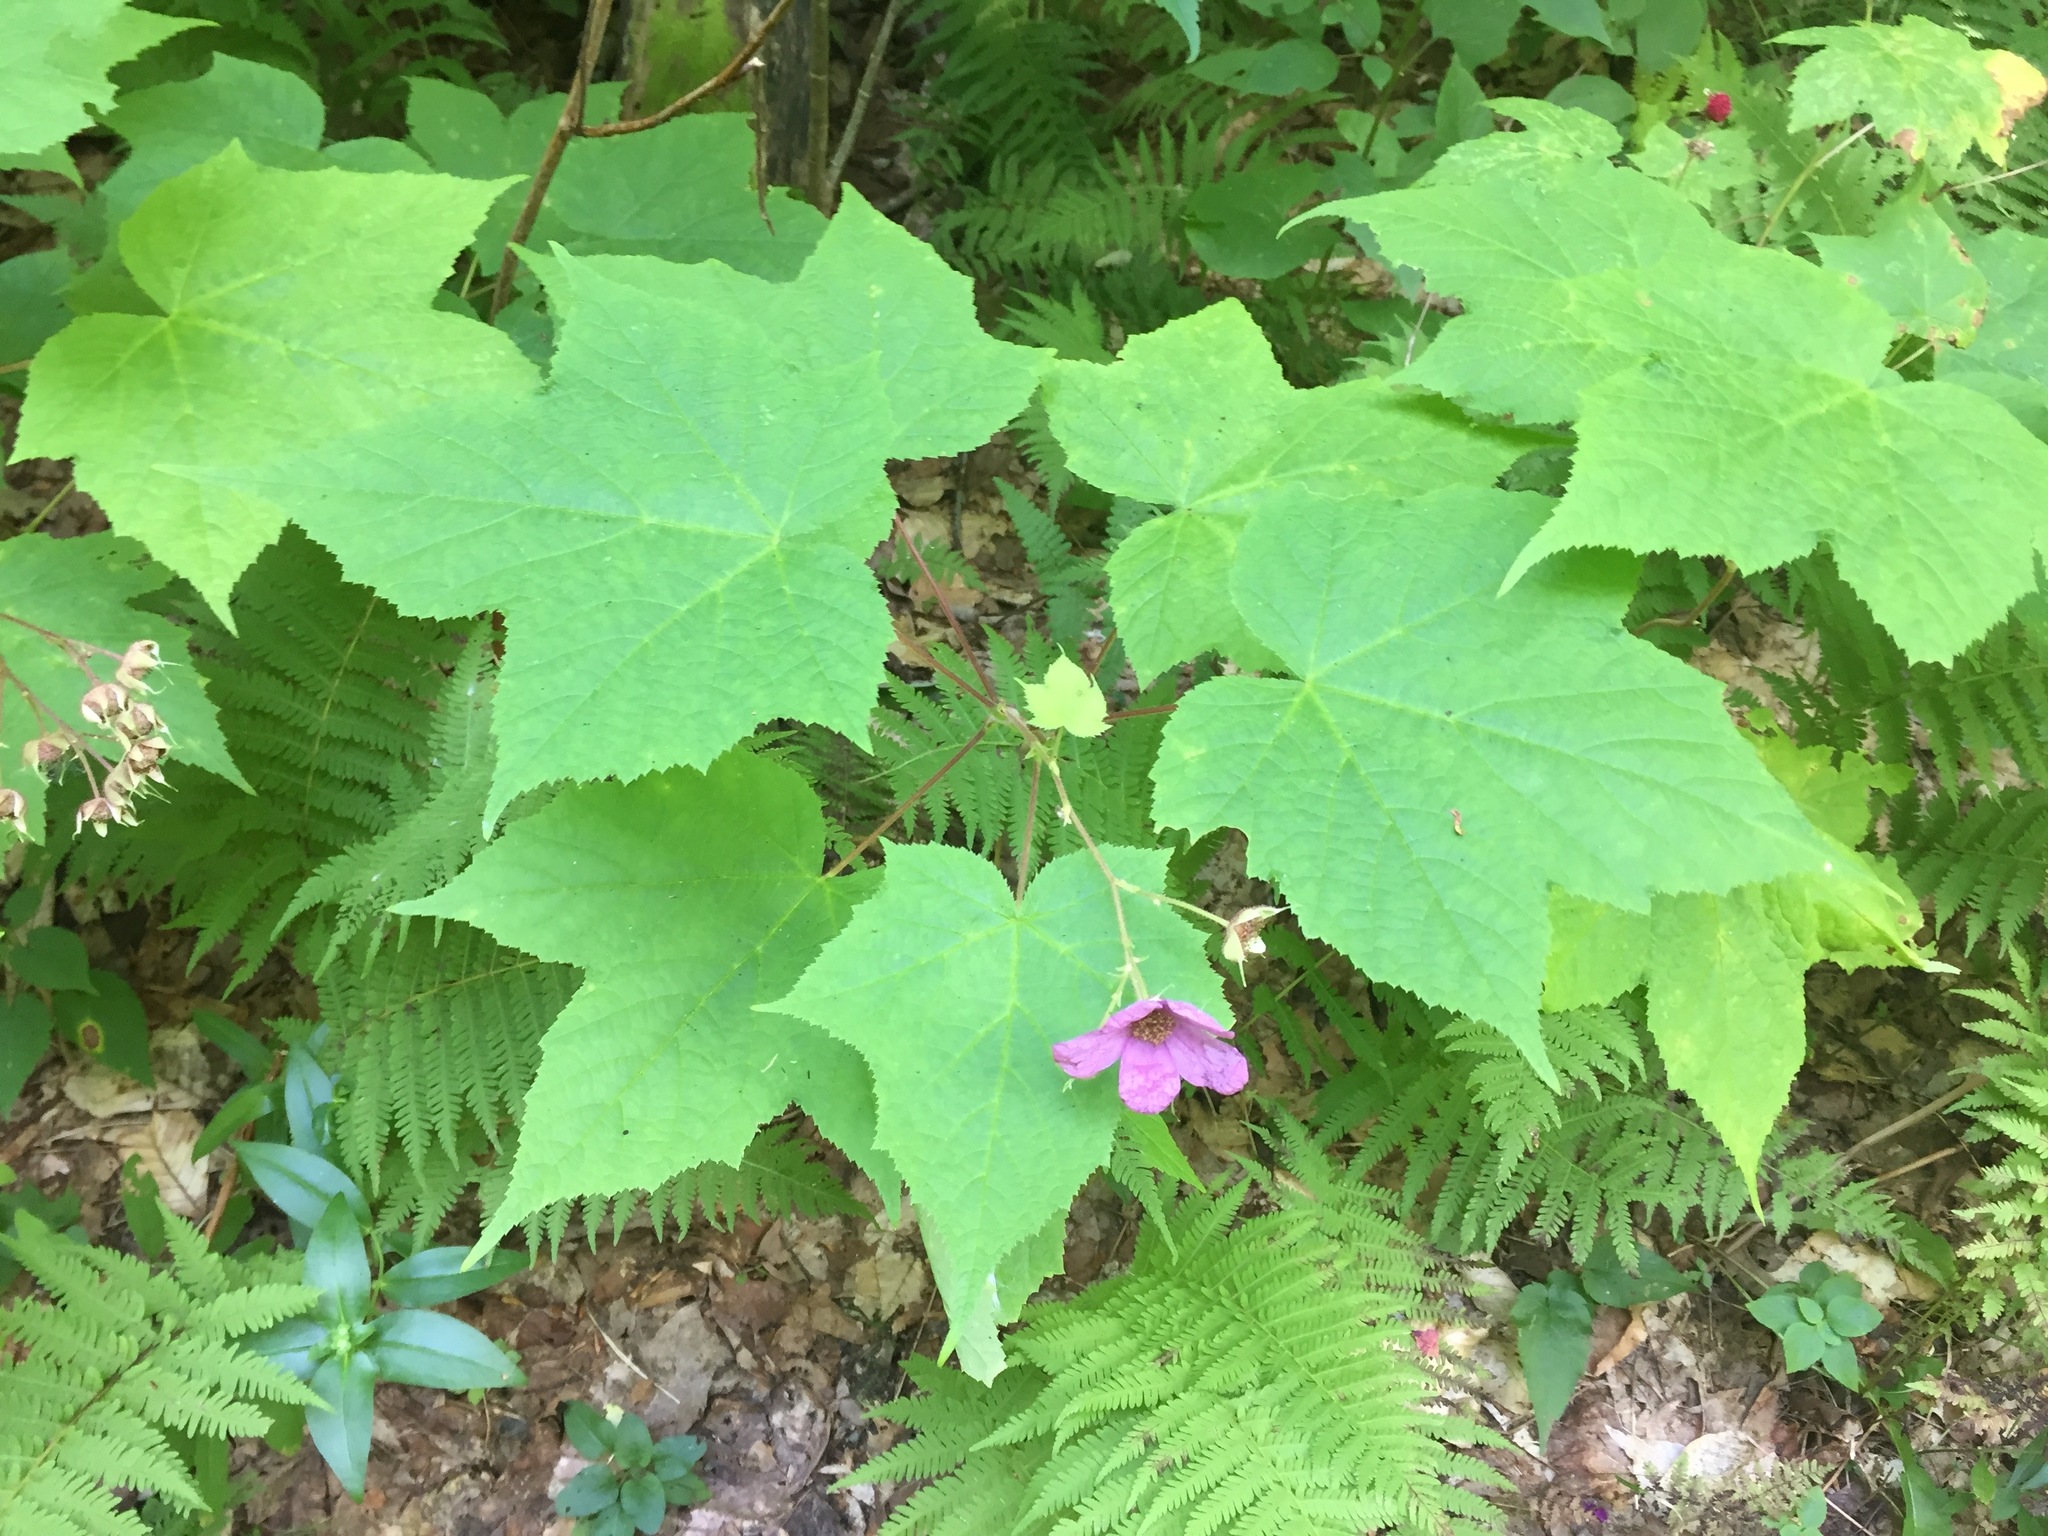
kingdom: Plantae
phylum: Tracheophyta
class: Magnoliopsida
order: Rosales
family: Rosaceae
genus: Rubus
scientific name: Rubus odoratus
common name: Purple-flowered raspberry
